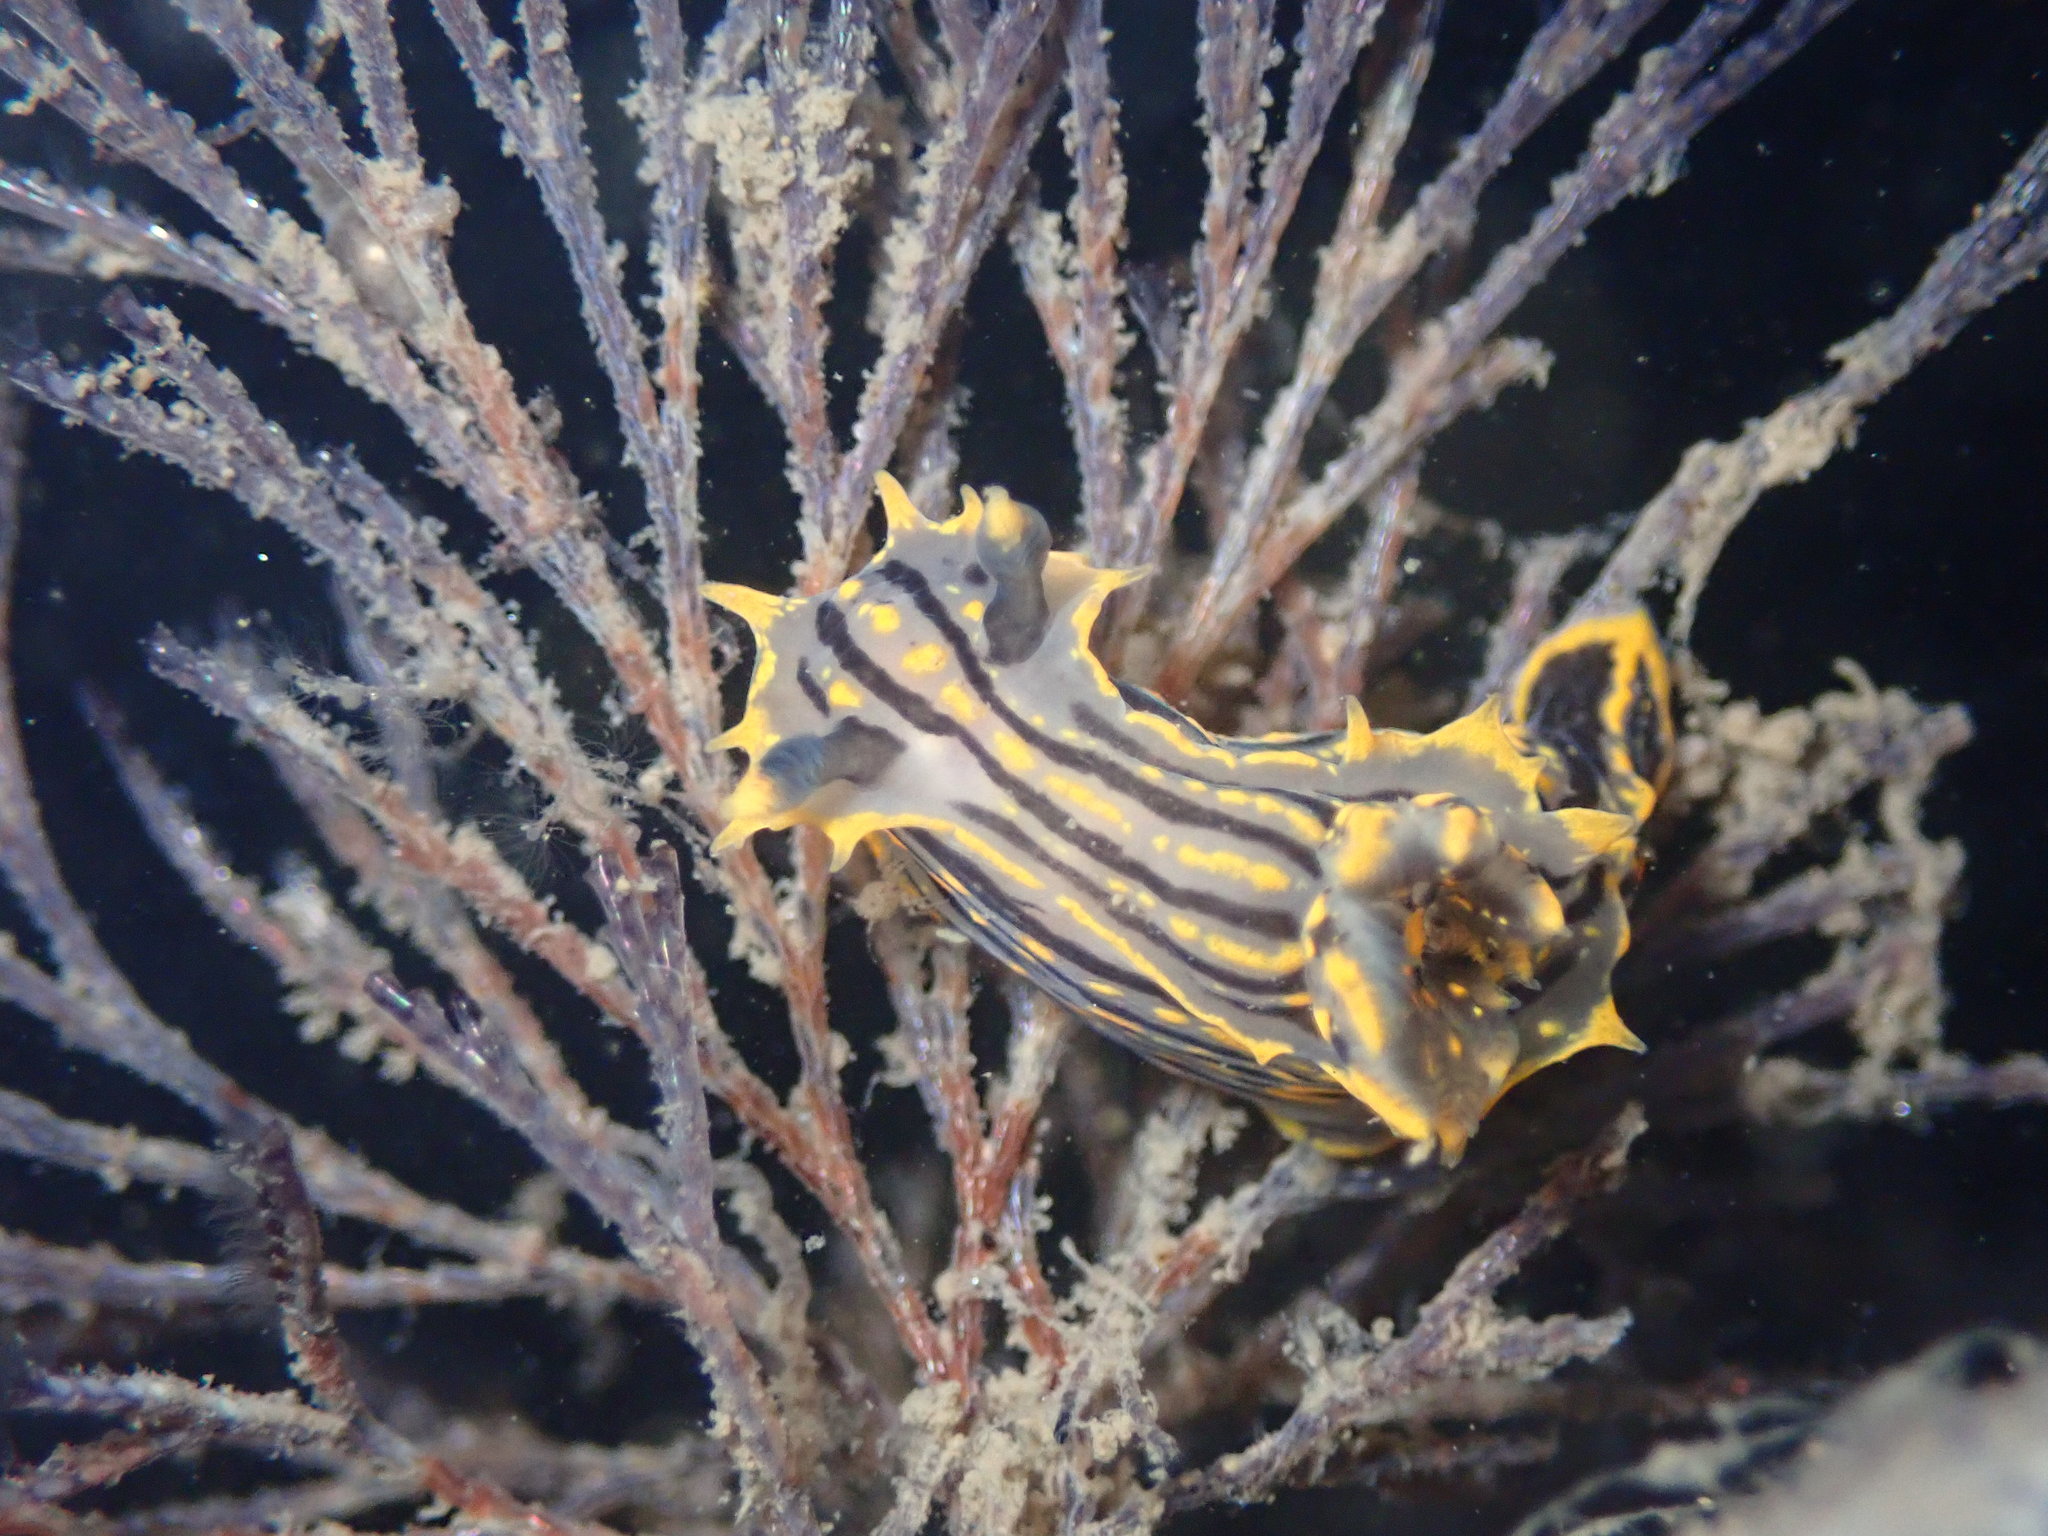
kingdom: Animalia
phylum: Mollusca
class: Gastropoda
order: Nudibranchia
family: Polyceridae
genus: Polycera
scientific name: Polycera atra
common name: Orange-spike polycera
